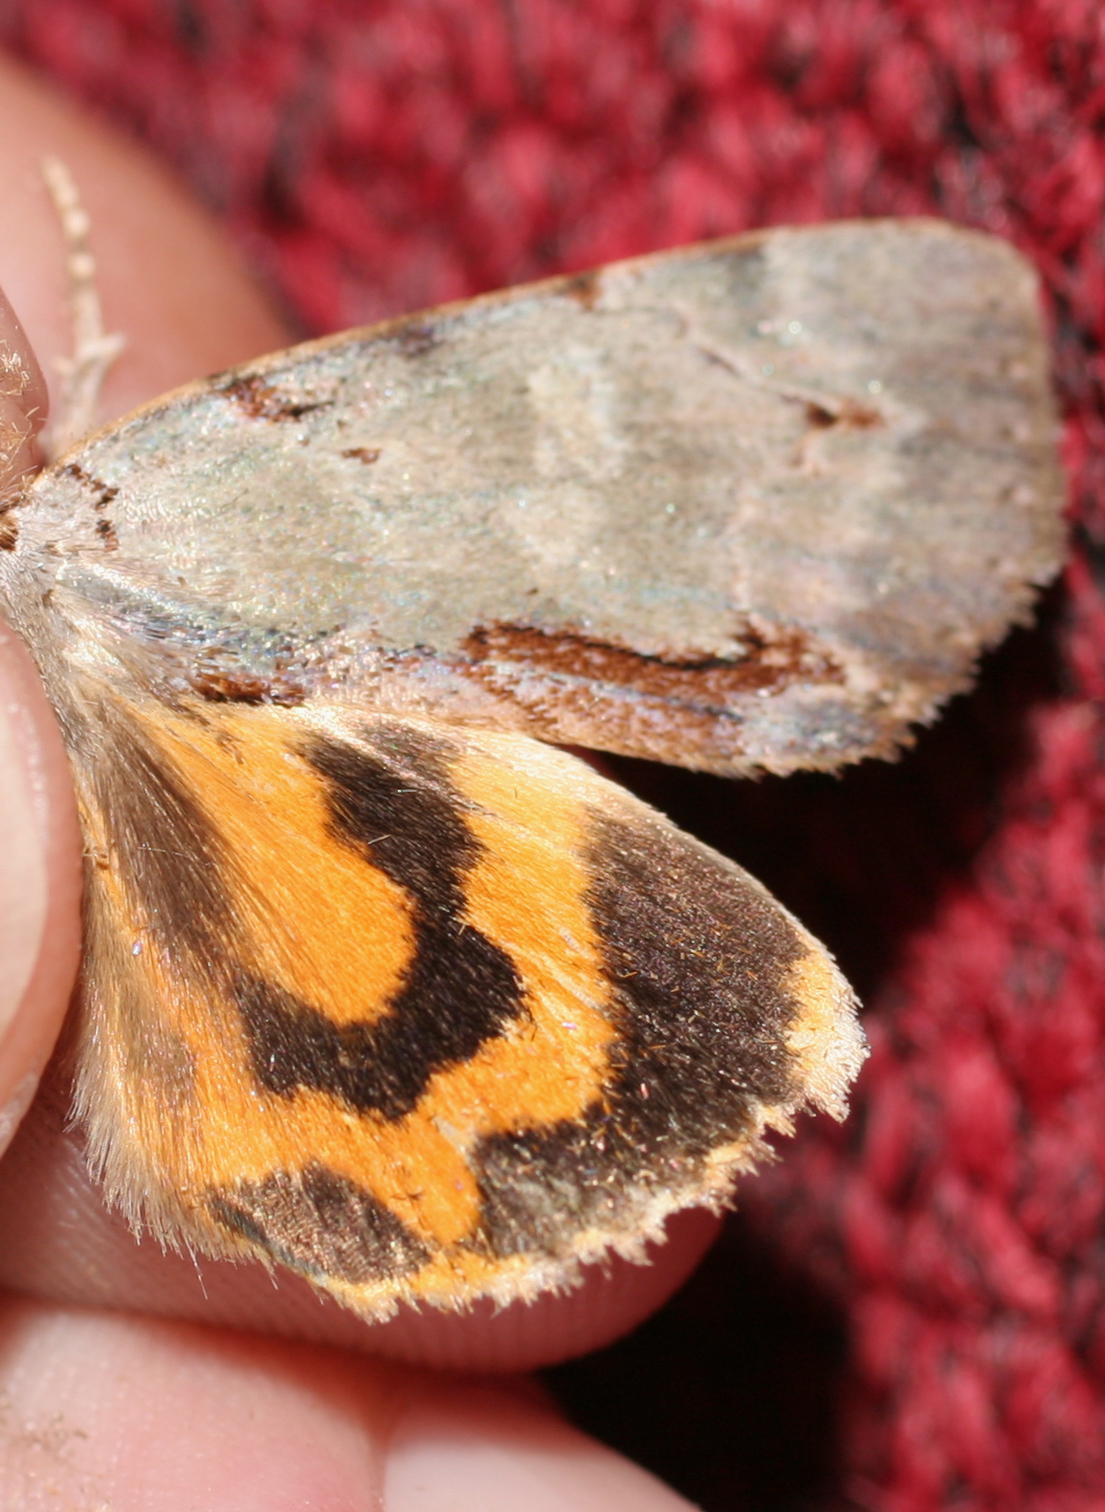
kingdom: Animalia
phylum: Arthropoda
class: Insecta
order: Lepidoptera
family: Erebidae
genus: Catocala
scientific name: Catocala grynea
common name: Woody underwing
